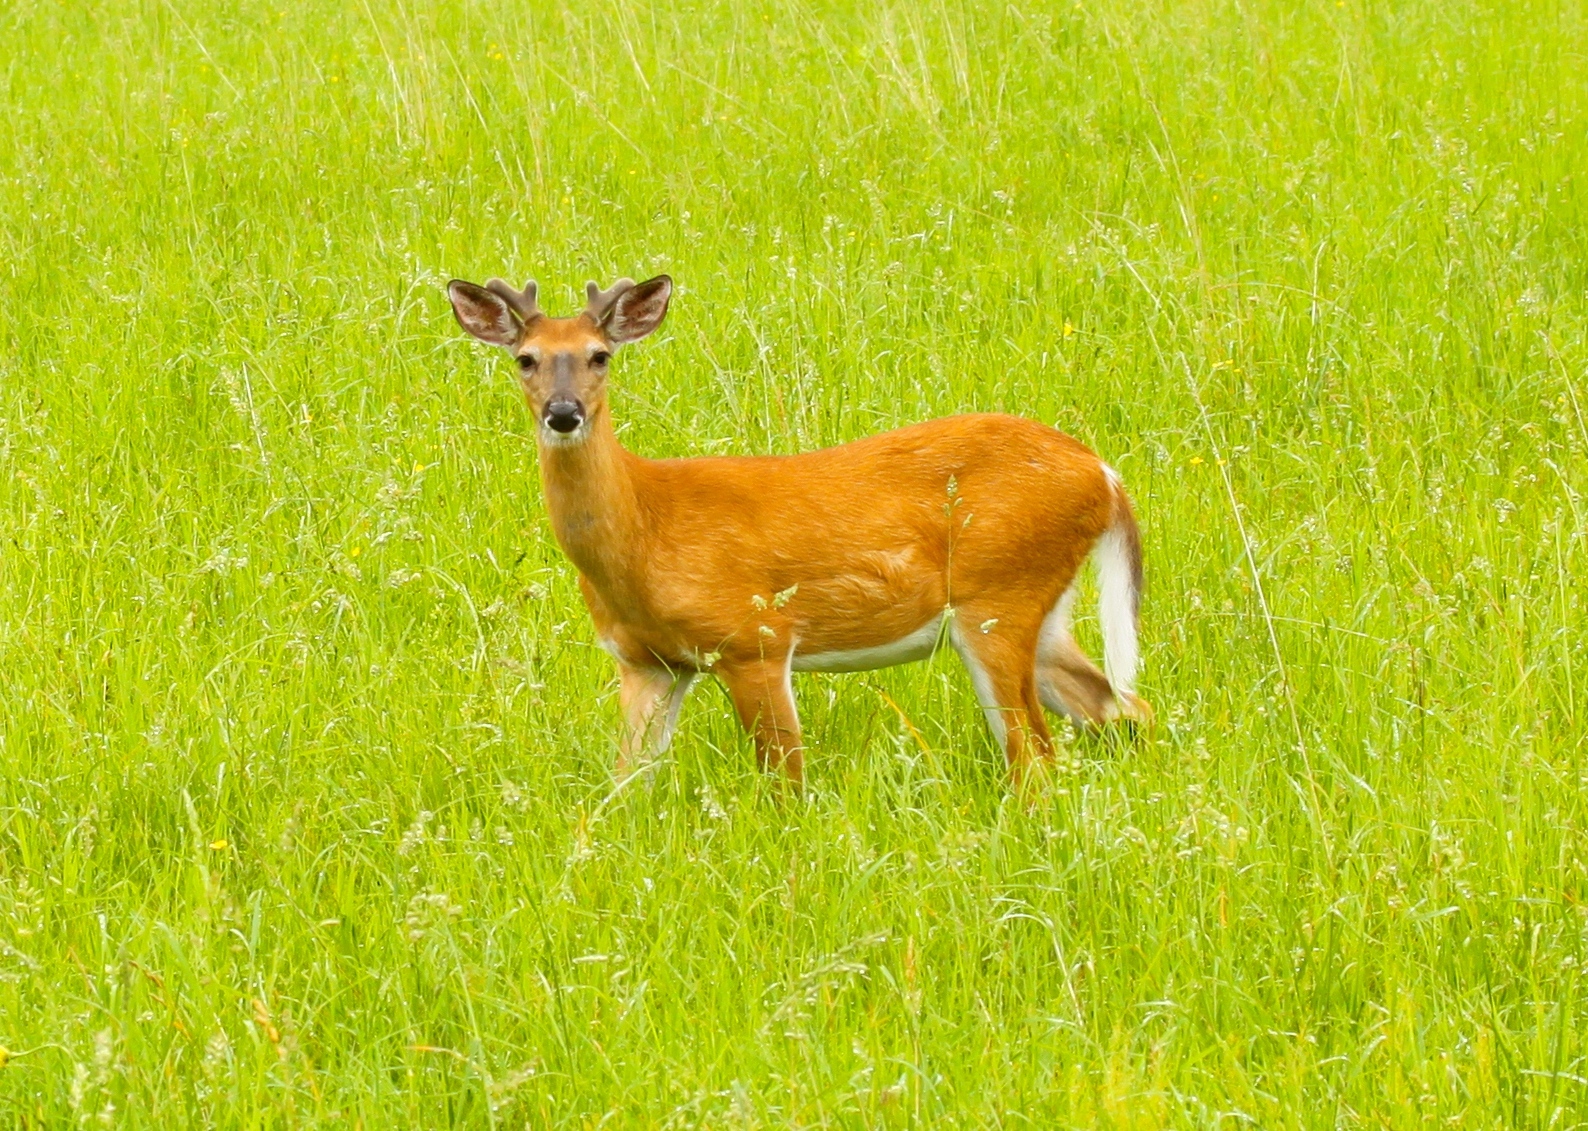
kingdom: Animalia
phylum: Chordata
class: Mammalia
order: Artiodactyla
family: Cervidae
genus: Odocoileus
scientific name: Odocoileus virginianus
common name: White-tailed deer
